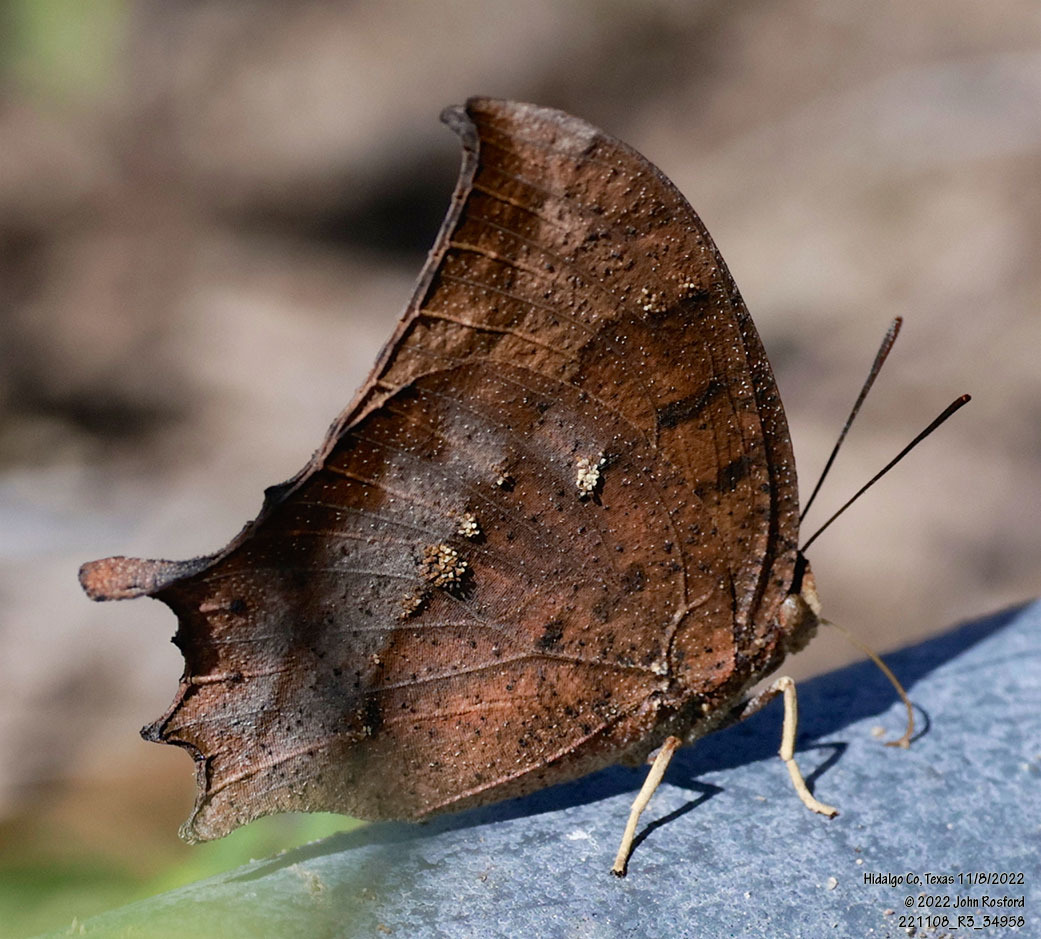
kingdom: Animalia
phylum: Arthropoda
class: Insecta
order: Lepidoptera
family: Nymphalidae
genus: Anaea
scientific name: Anaea aidea
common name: Tropical leafwing
